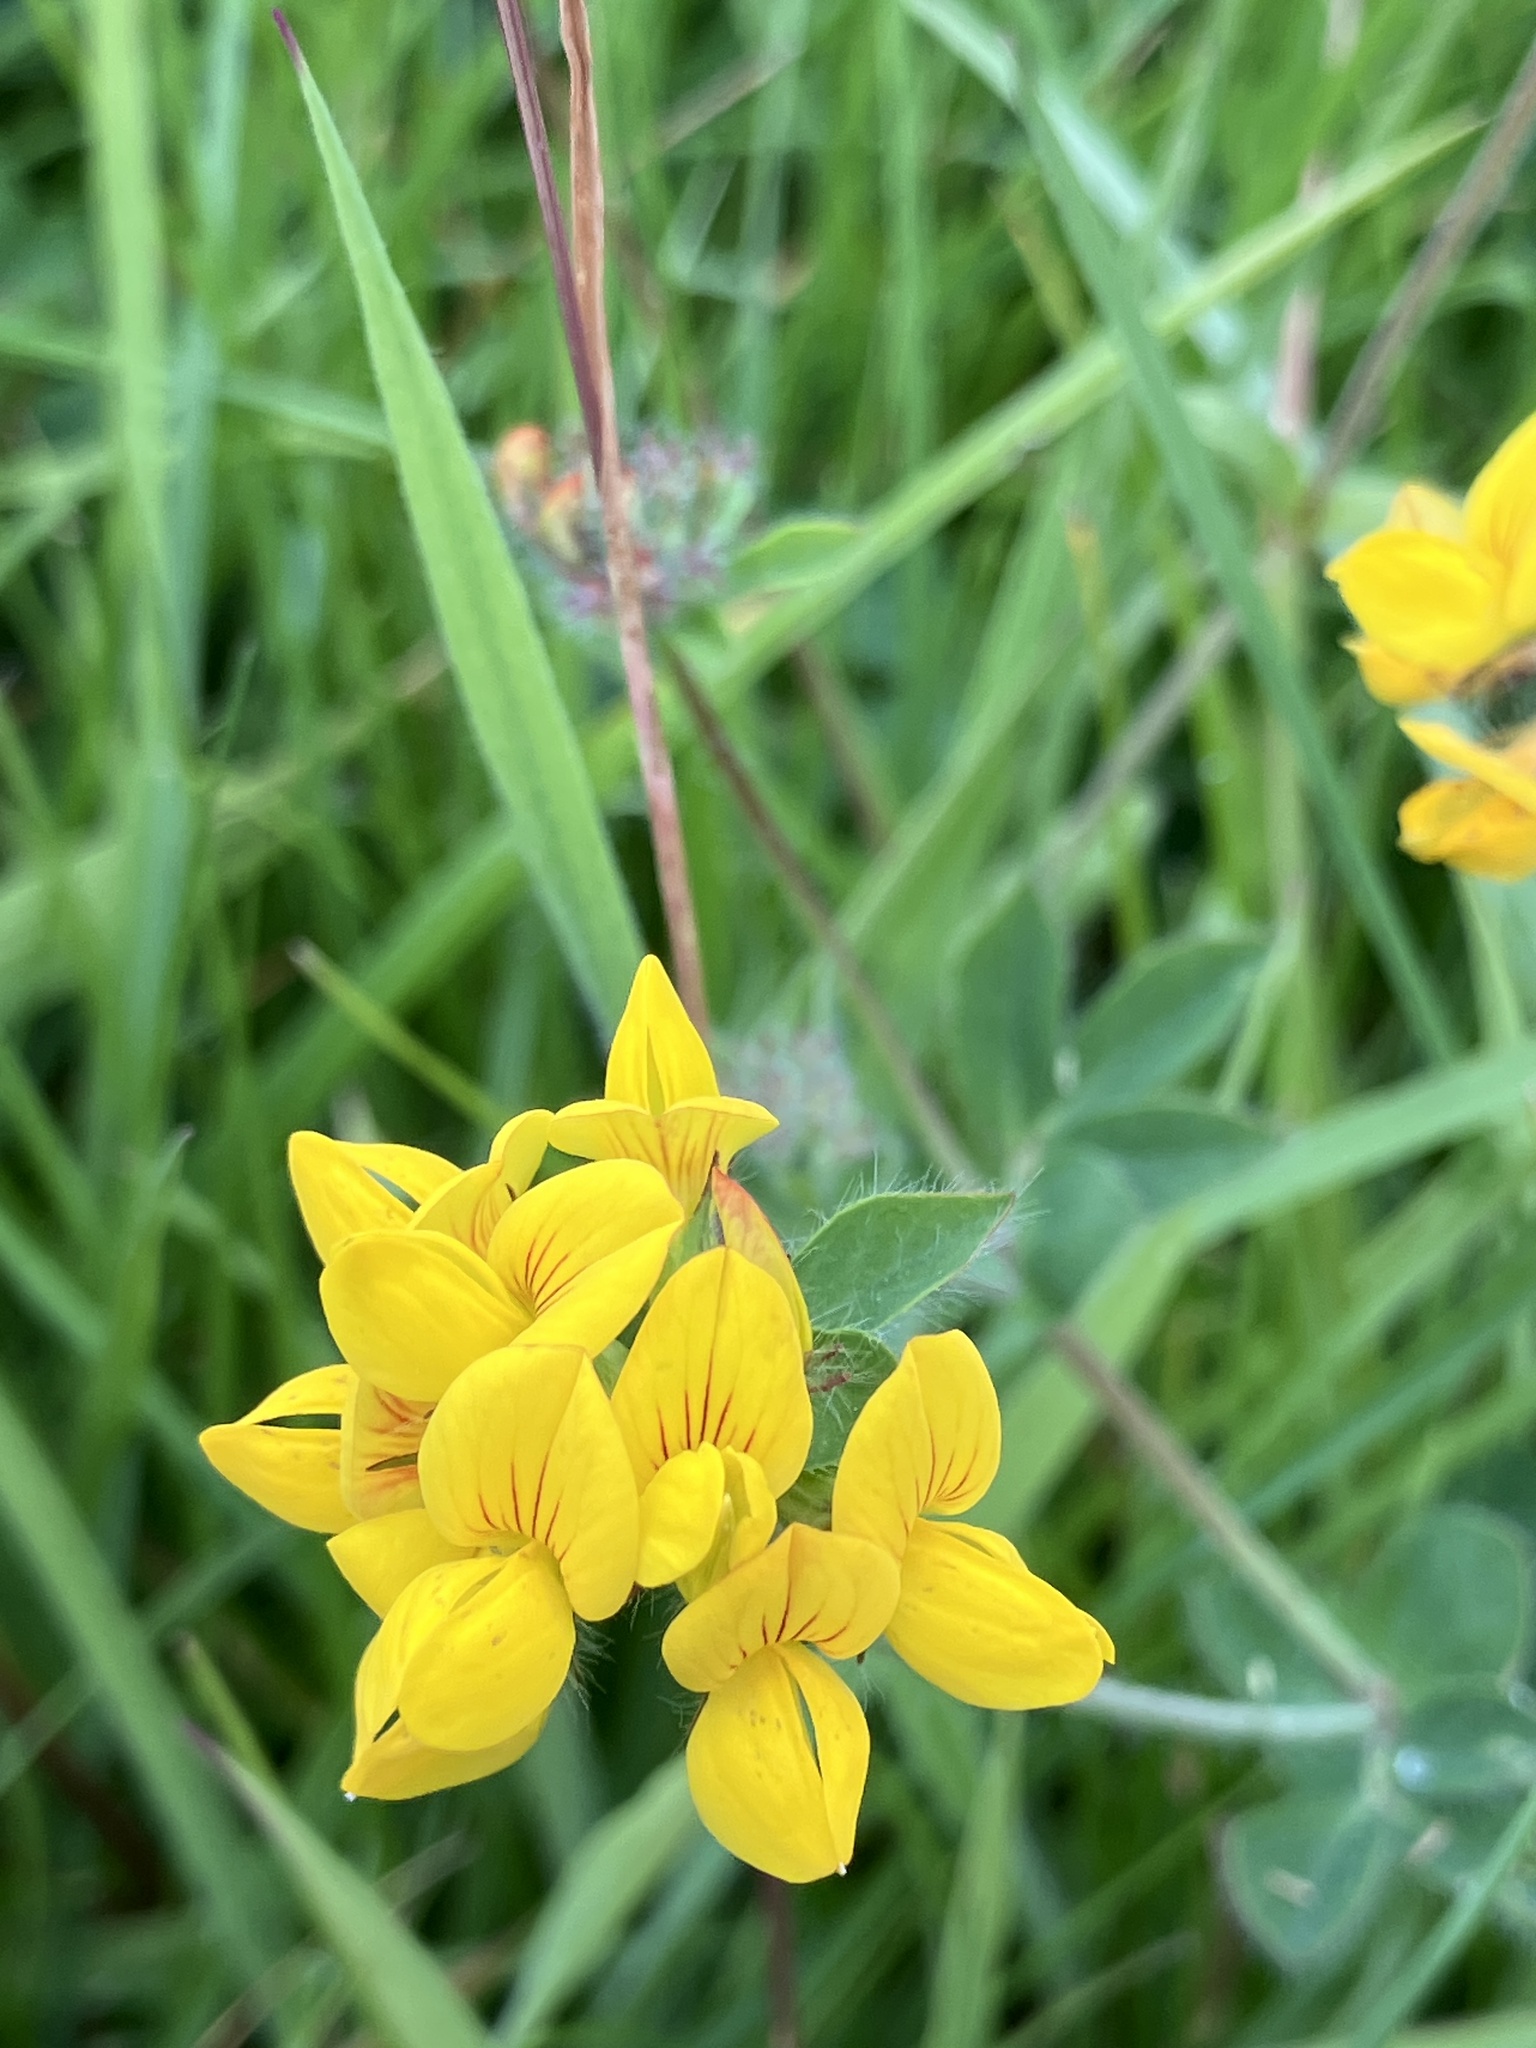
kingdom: Plantae
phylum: Tracheophyta
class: Magnoliopsida
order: Fabales
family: Fabaceae
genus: Lotus
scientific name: Lotus pedunculatus
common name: Greater birdsfoot-trefoil
